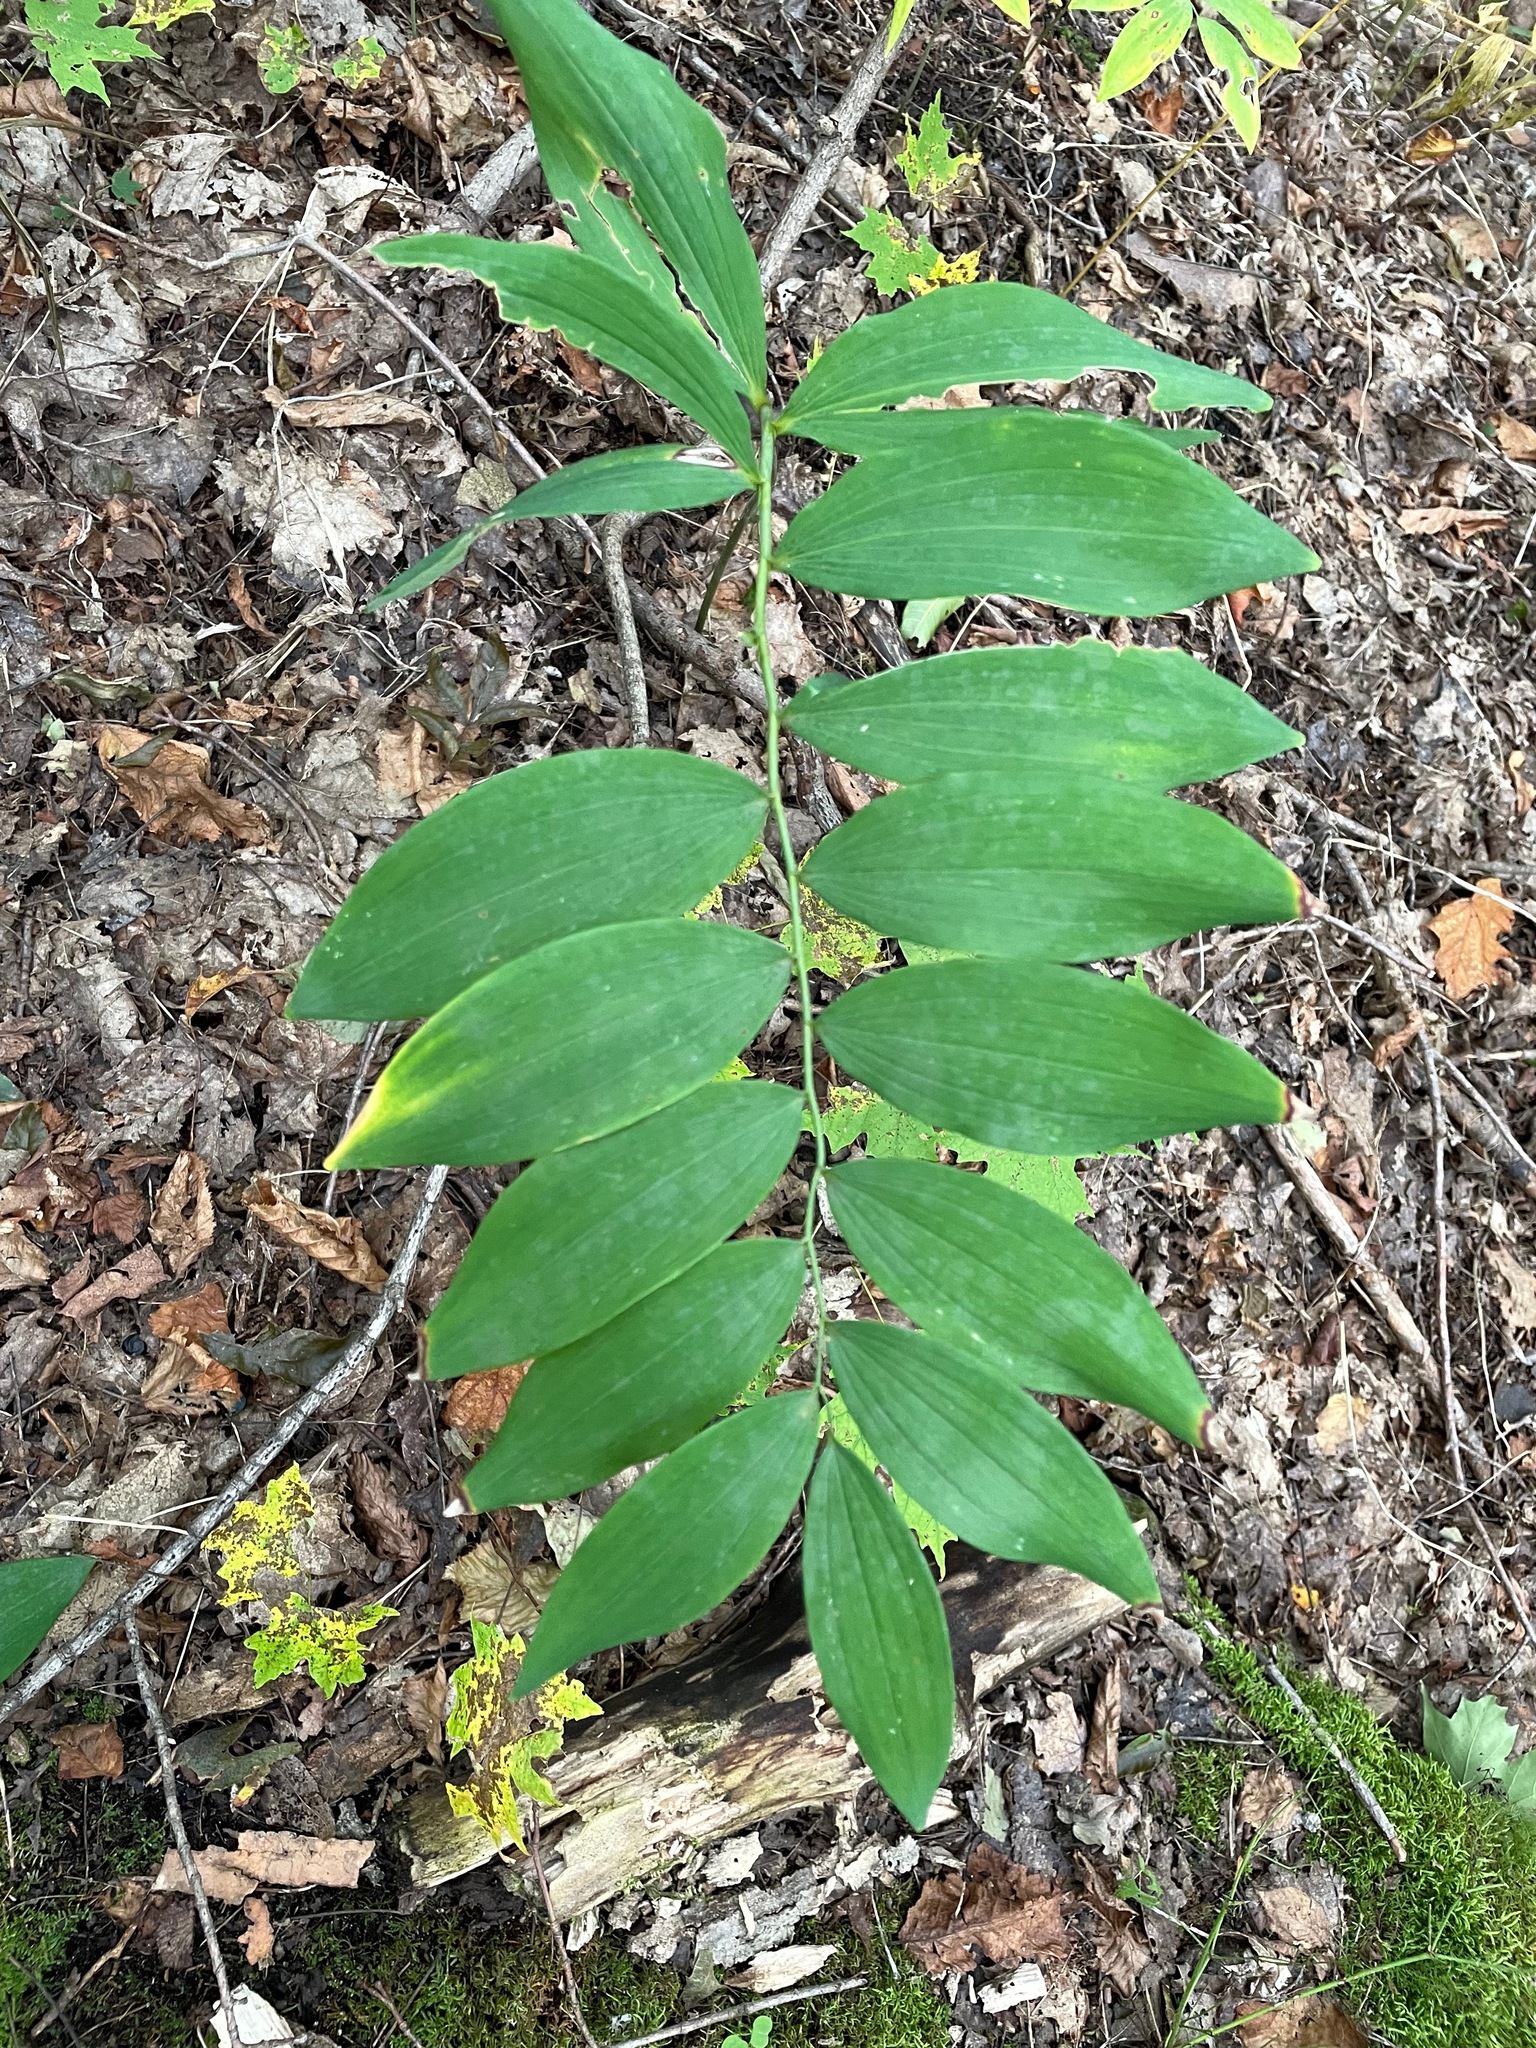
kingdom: Plantae
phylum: Tracheophyta
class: Liliopsida
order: Asparagales
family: Asparagaceae
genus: Polygonatum
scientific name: Polygonatum pubescens
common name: Downy solomon's seal
